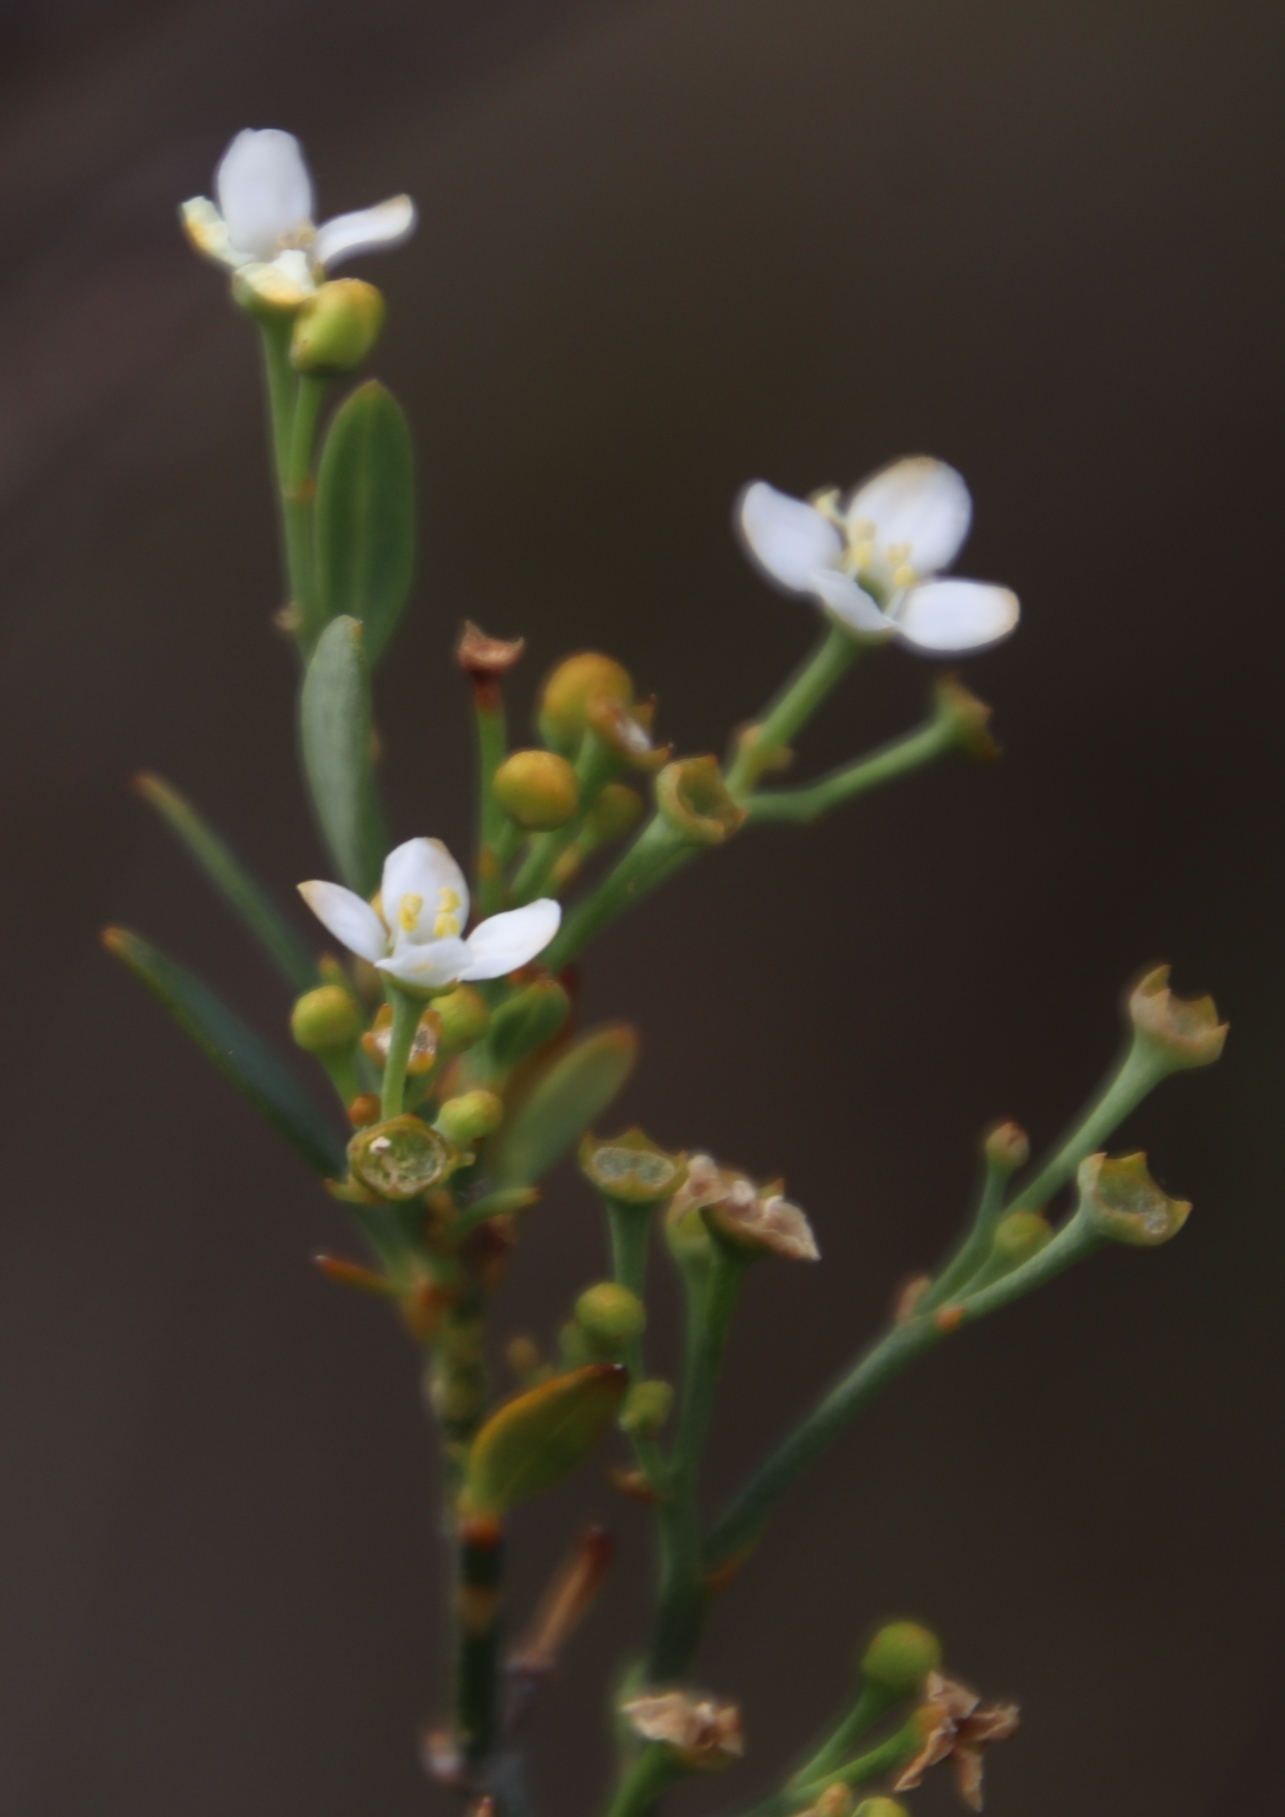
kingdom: Plantae
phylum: Tracheophyta
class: Magnoliopsida
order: Solanales
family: Montiniaceae
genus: Montinia
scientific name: Montinia caryophyllacea
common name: Wild clove-bush
